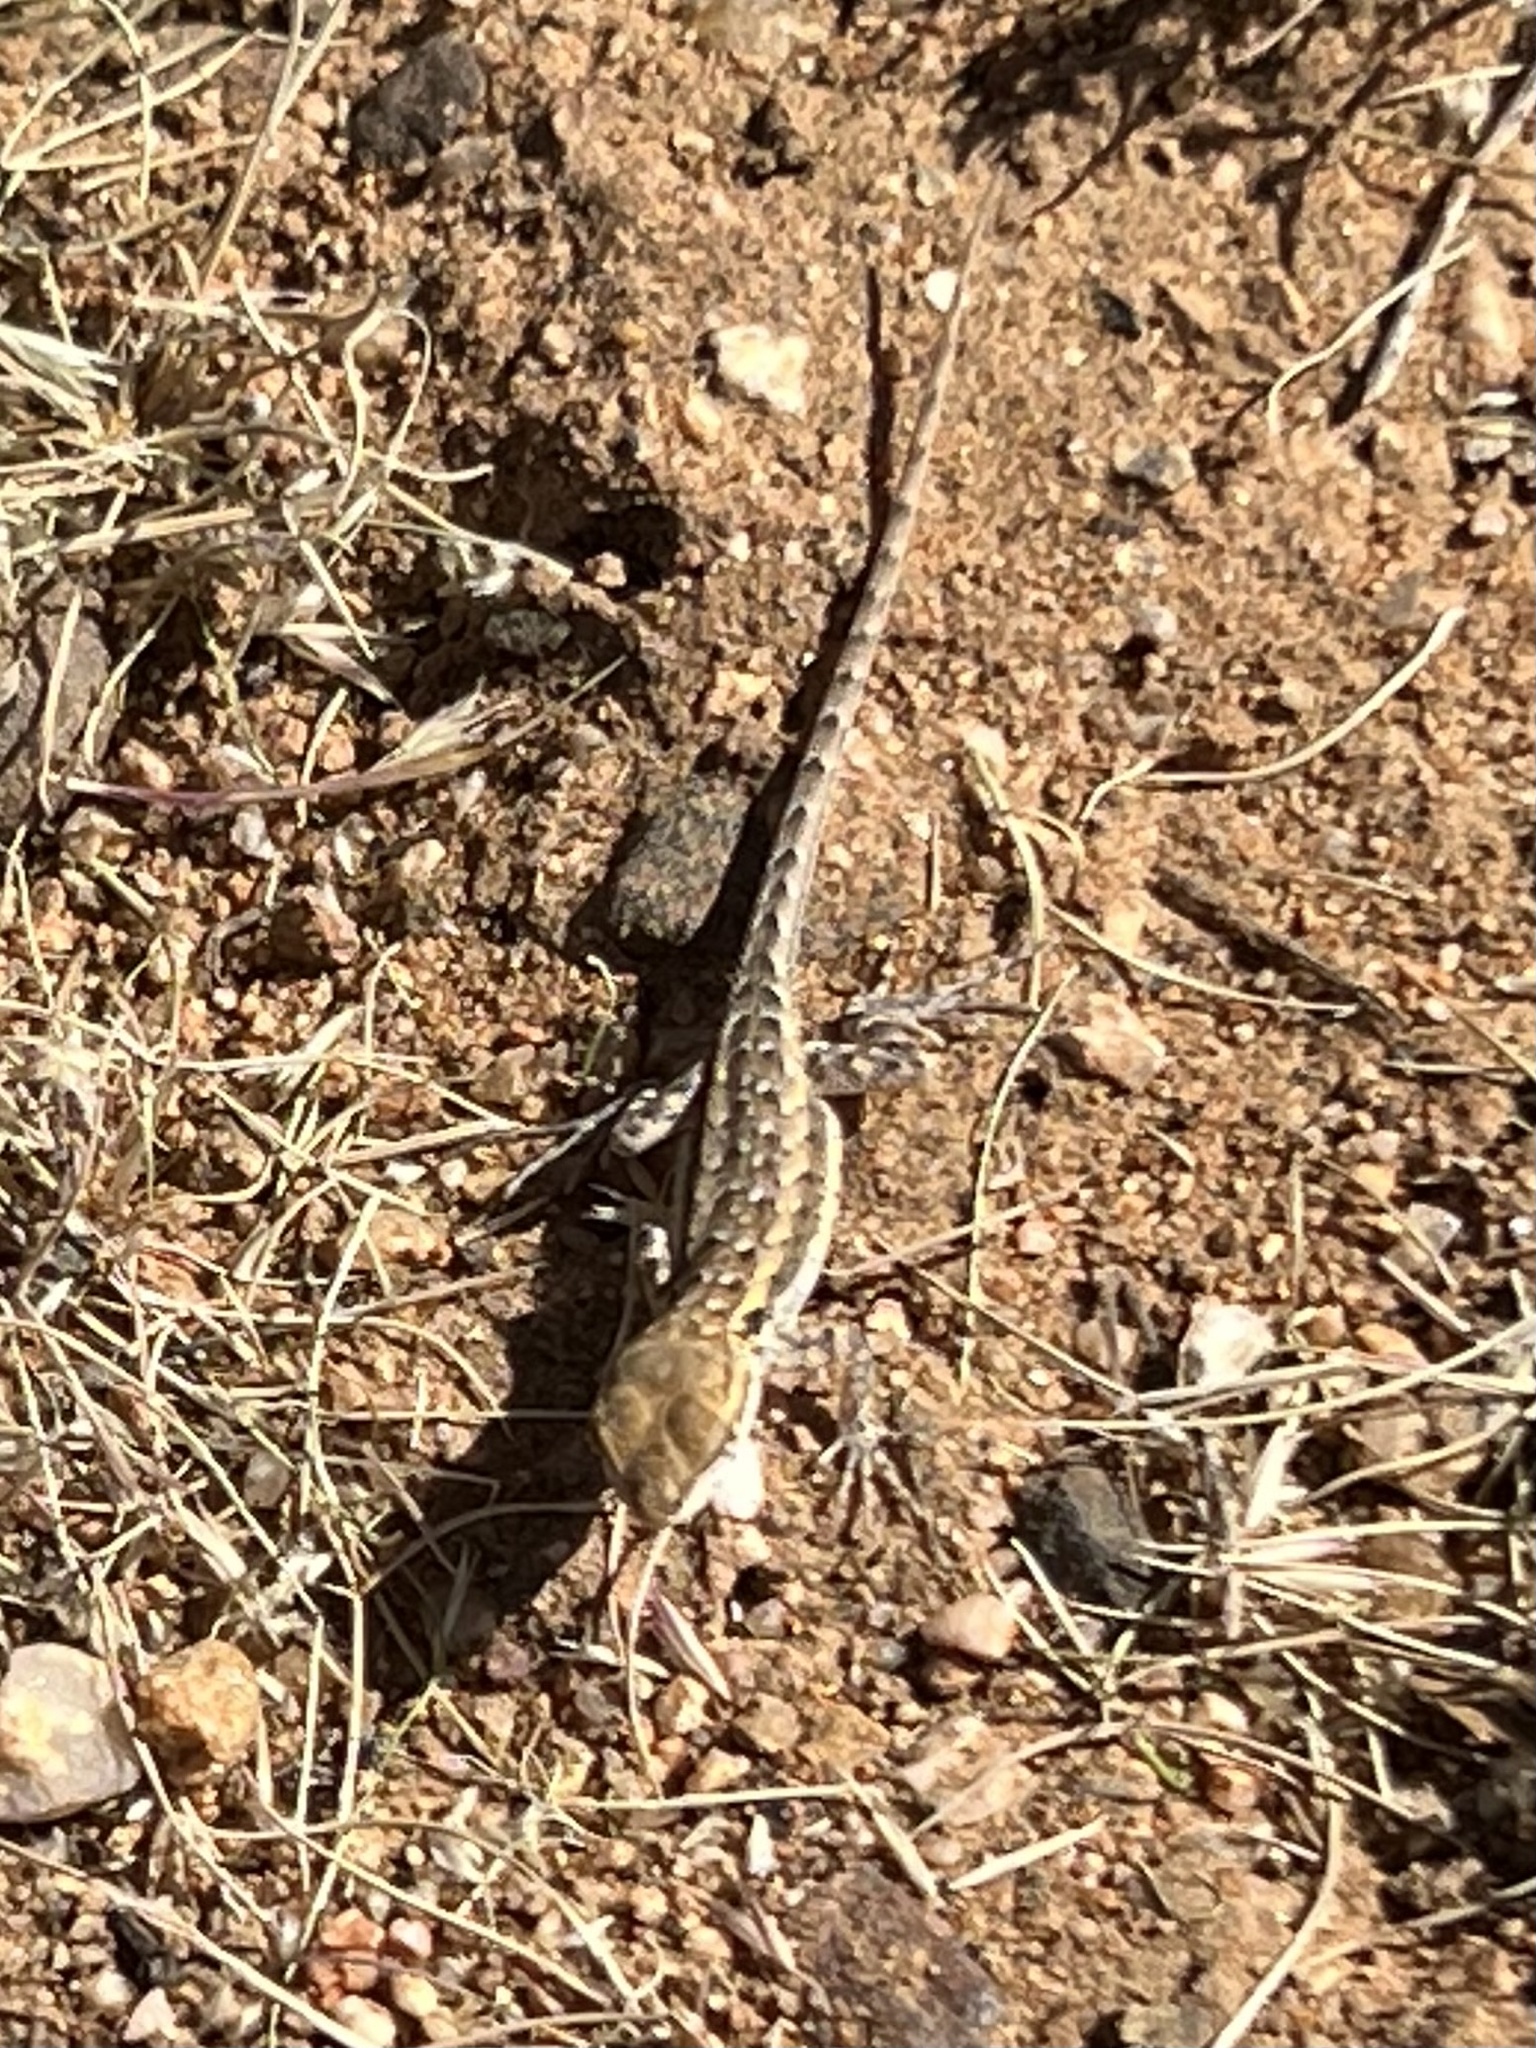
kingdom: Animalia
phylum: Chordata
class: Squamata
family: Phrynosomatidae
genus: Uta
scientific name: Uta stansburiana
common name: Side-blotched lizard
